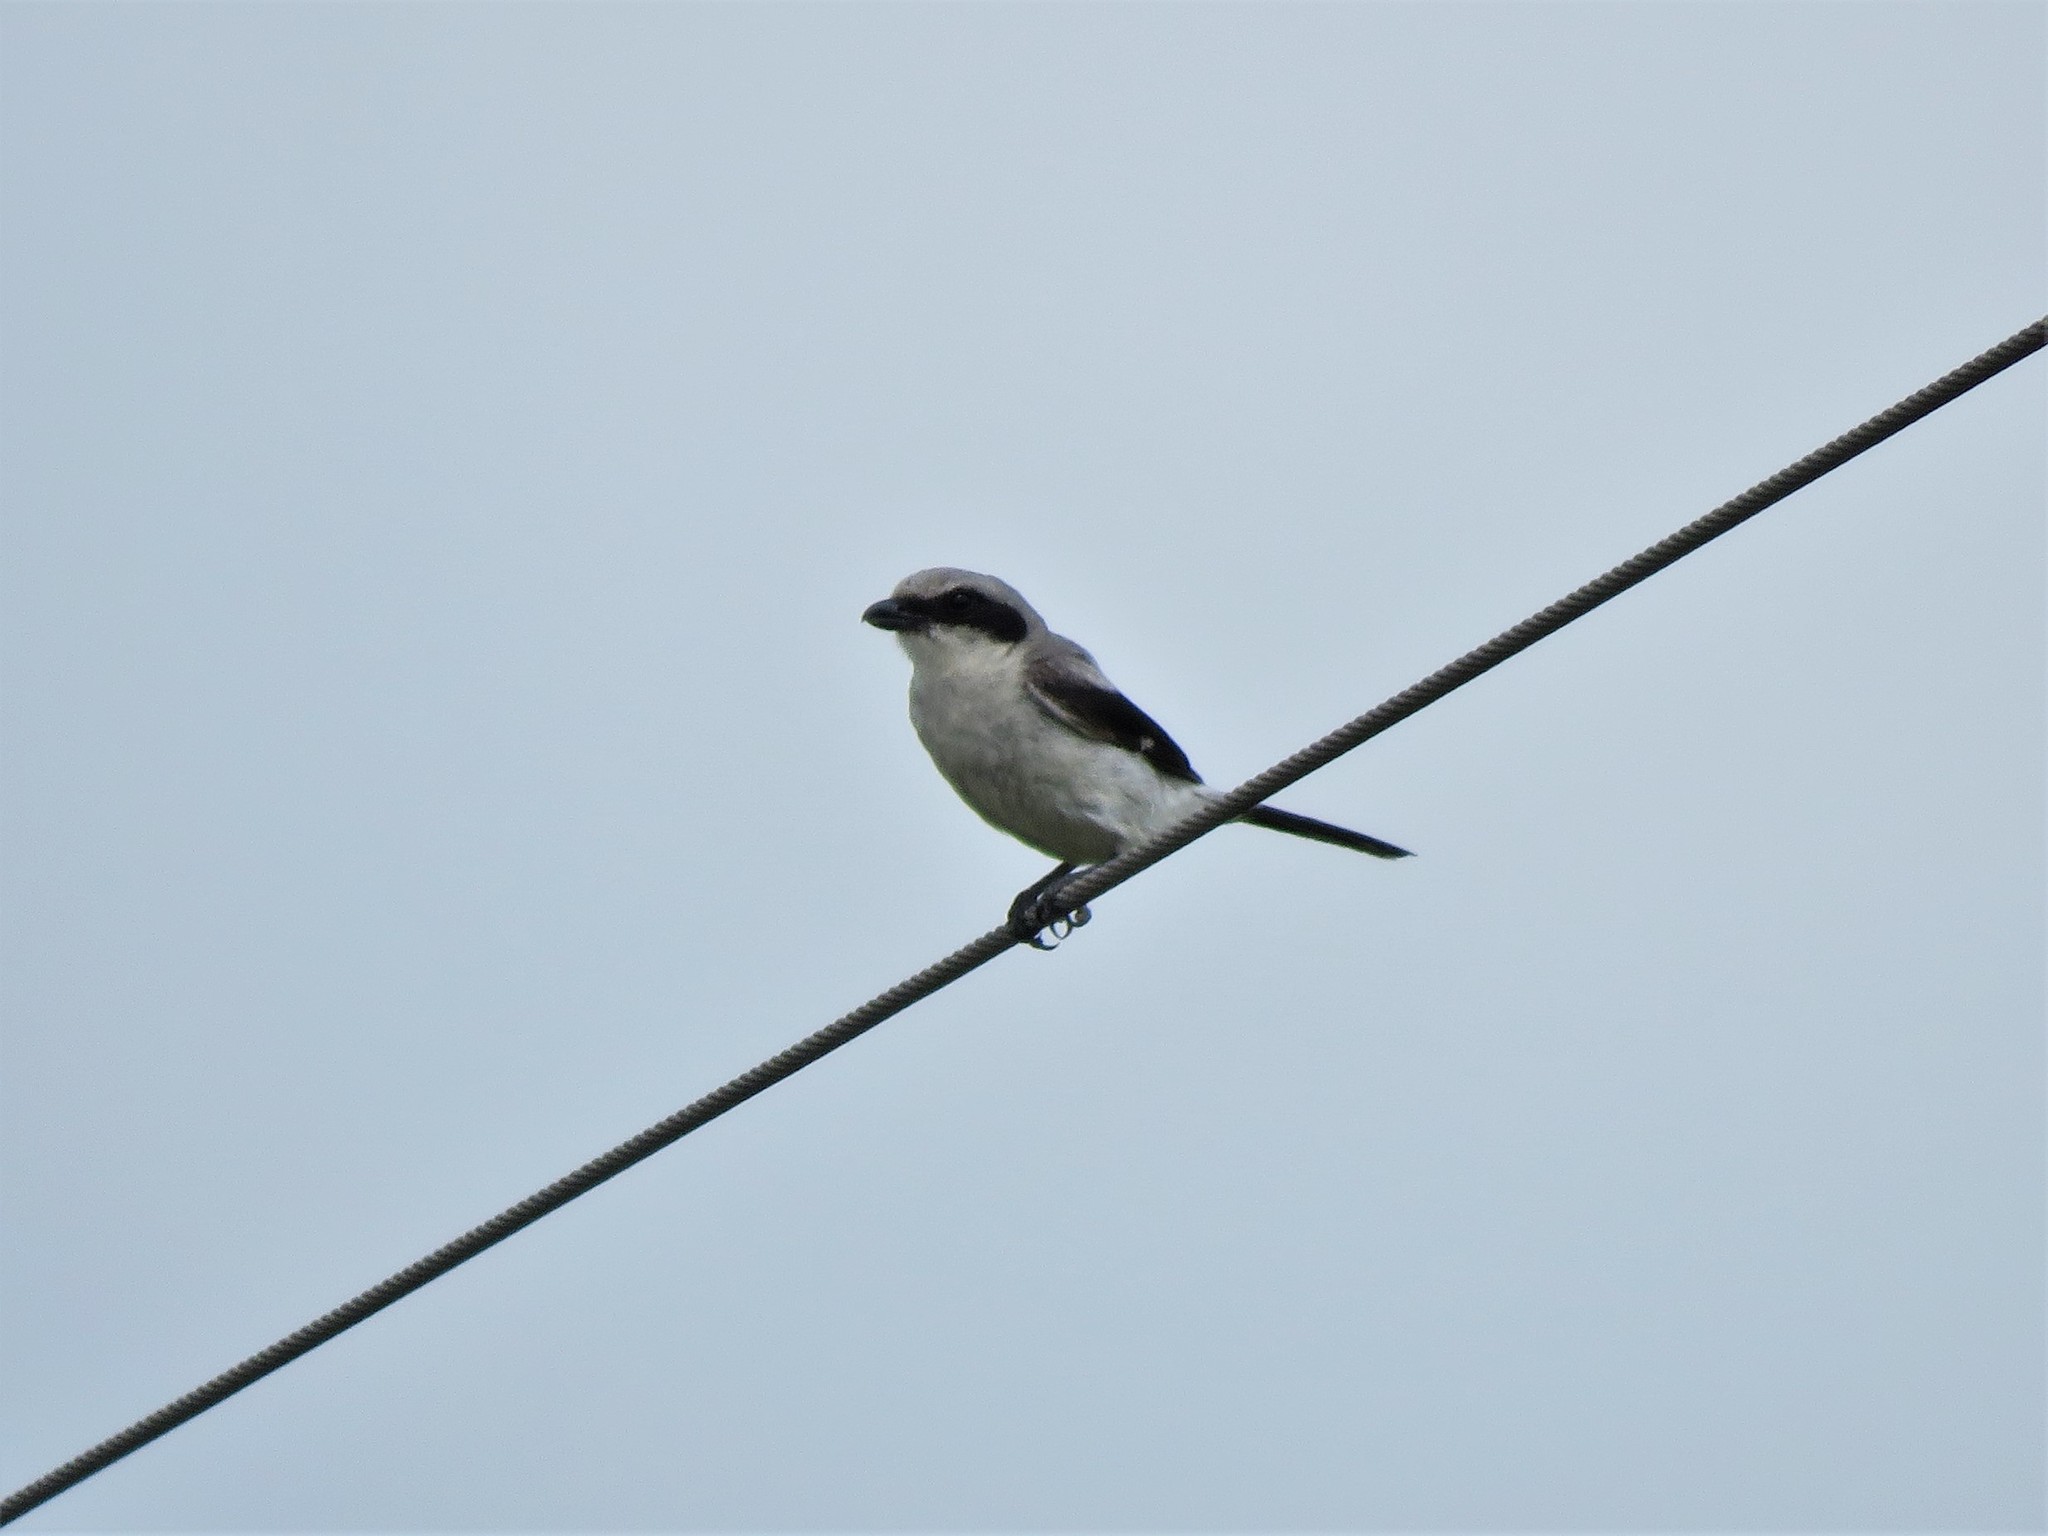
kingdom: Animalia
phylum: Chordata
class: Aves
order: Passeriformes
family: Laniidae
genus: Lanius
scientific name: Lanius ludovicianus
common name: Loggerhead shrike
